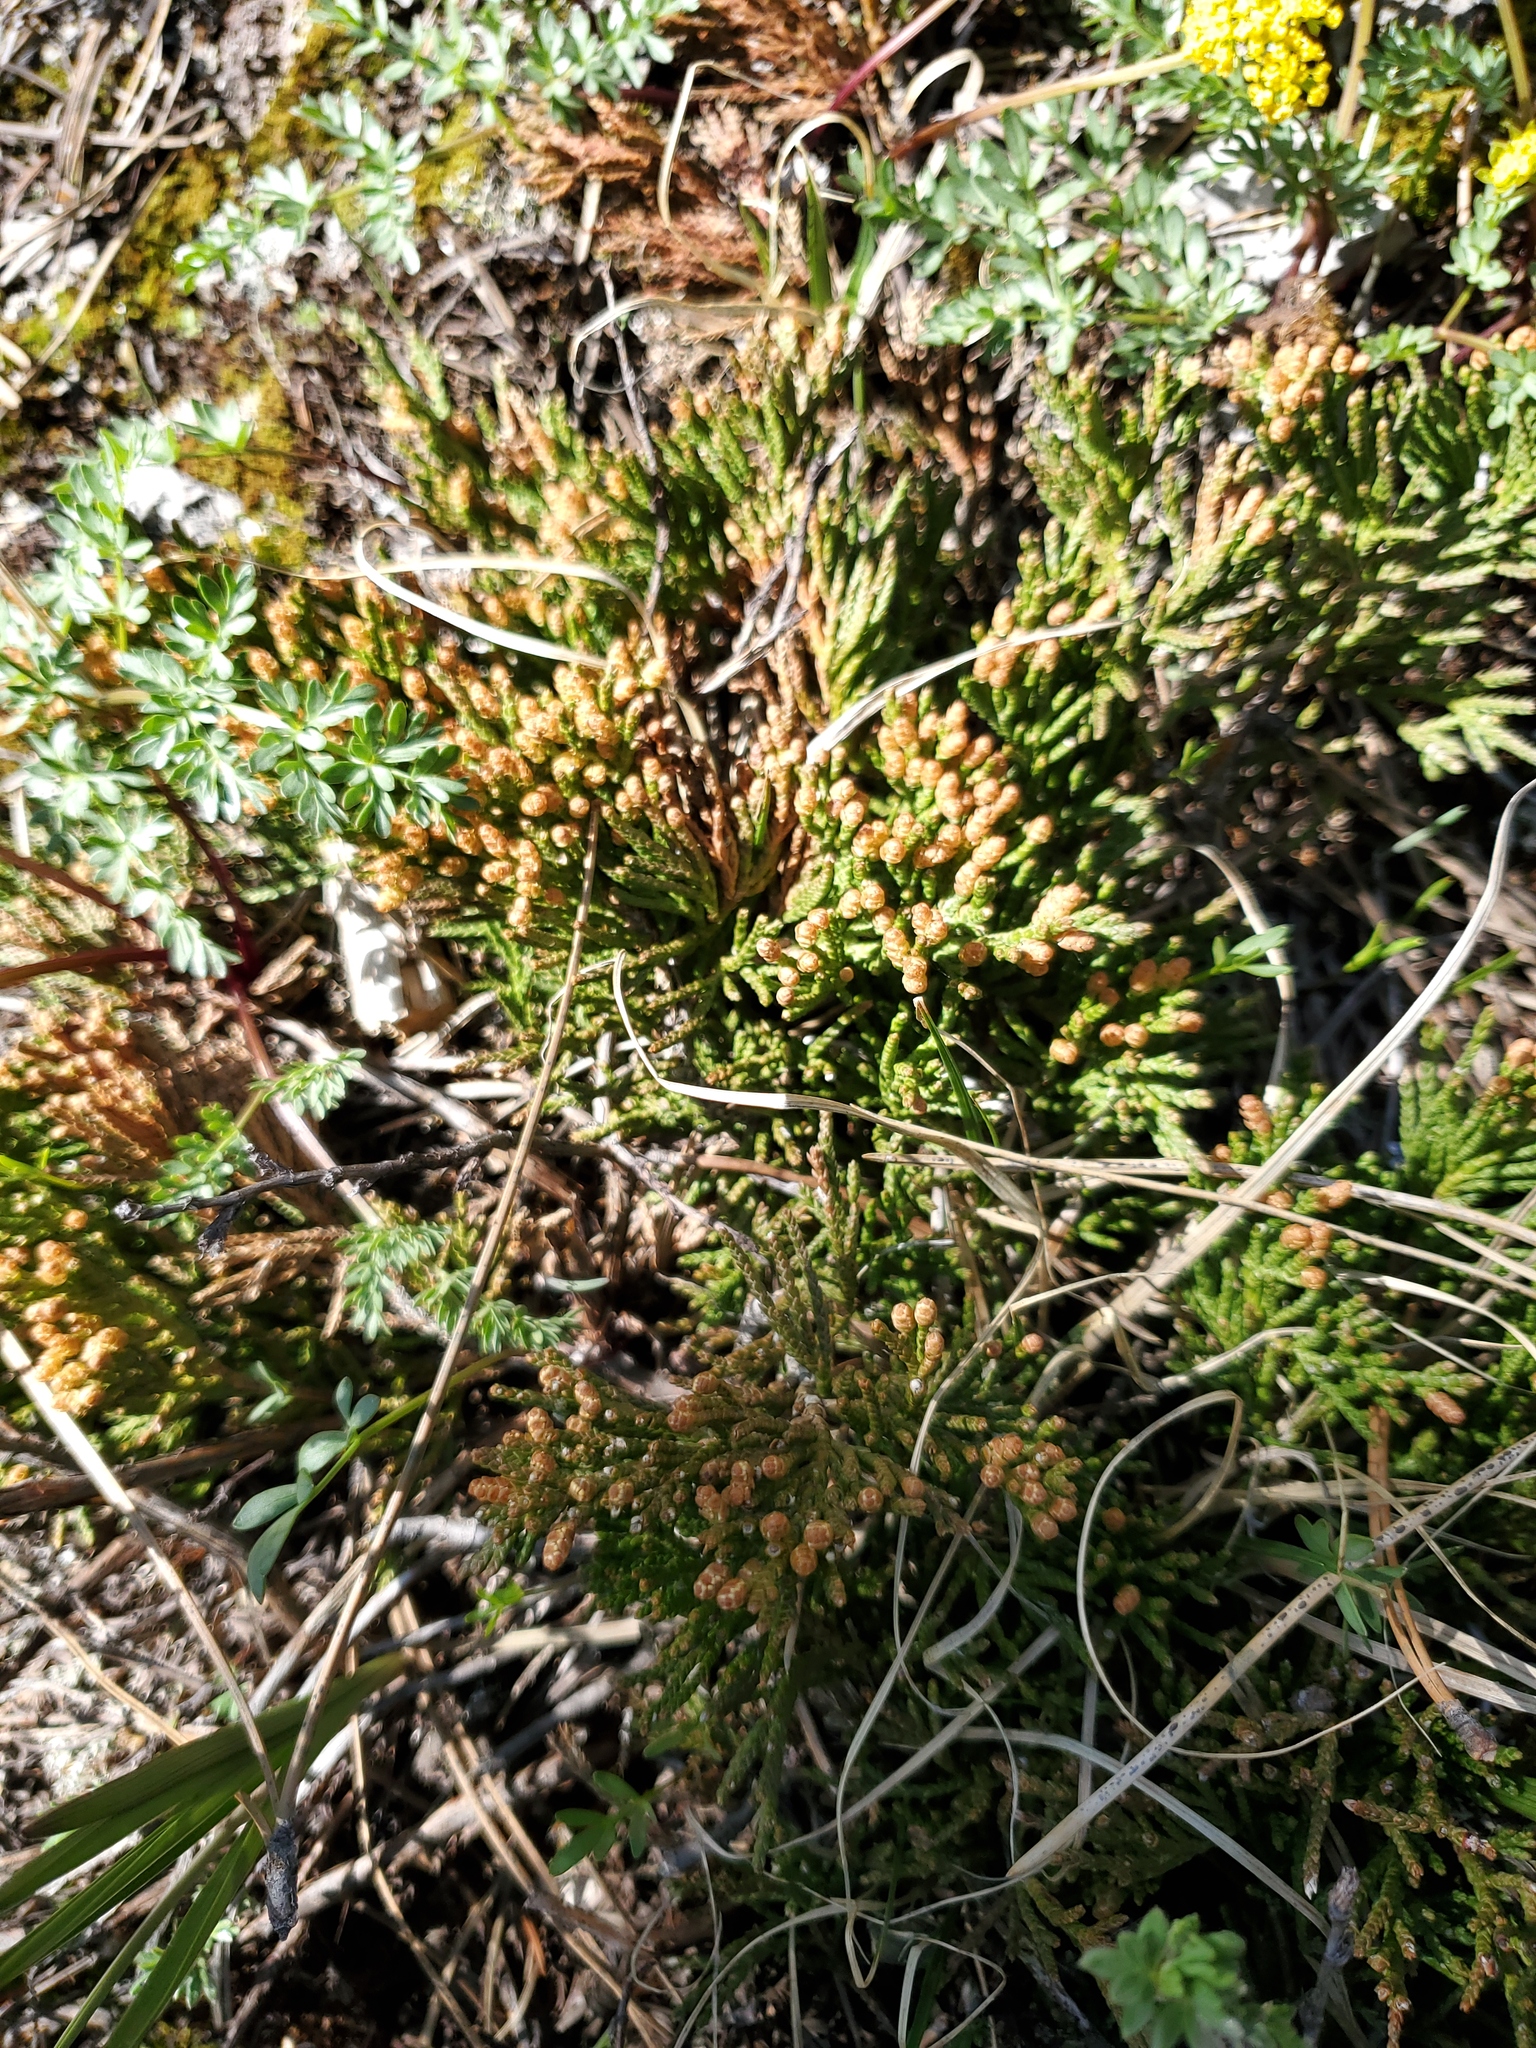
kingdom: Plantae
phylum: Tracheophyta
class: Pinopsida
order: Pinales
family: Cupressaceae
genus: Juniperus
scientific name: Juniperus horizontalis
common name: Creeping juniper
